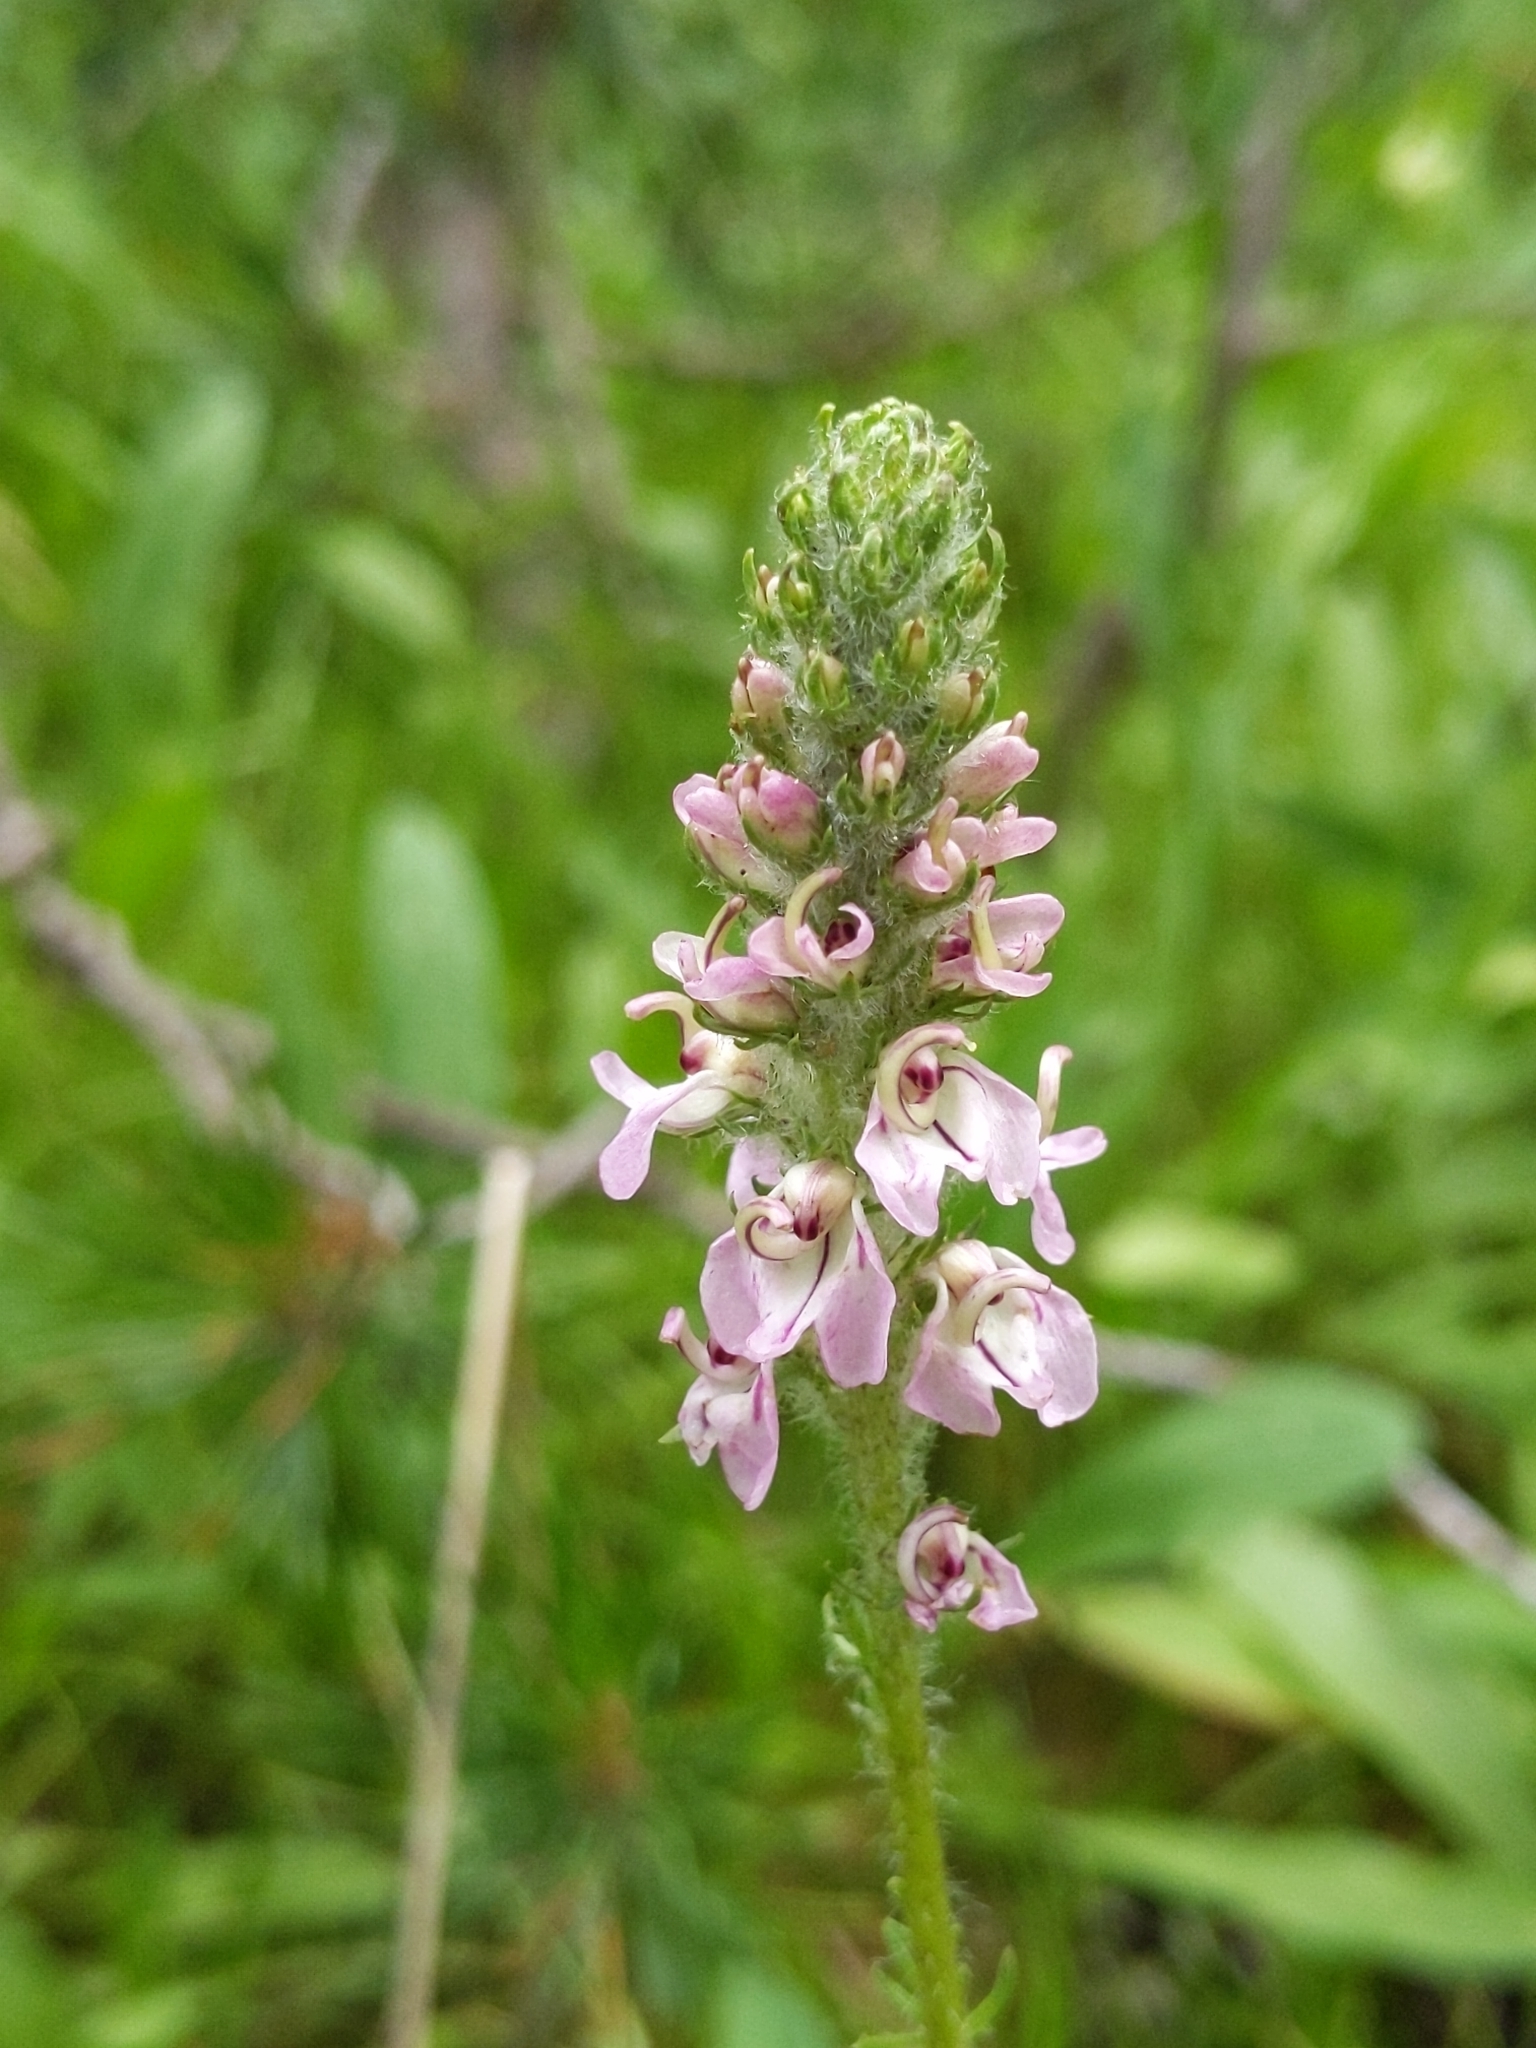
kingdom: Plantae
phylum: Tracheophyta
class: Magnoliopsida
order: Lamiales
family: Orobanchaceae
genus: Pedicularis
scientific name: Pedicularis attollens
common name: Slender pedicularis
